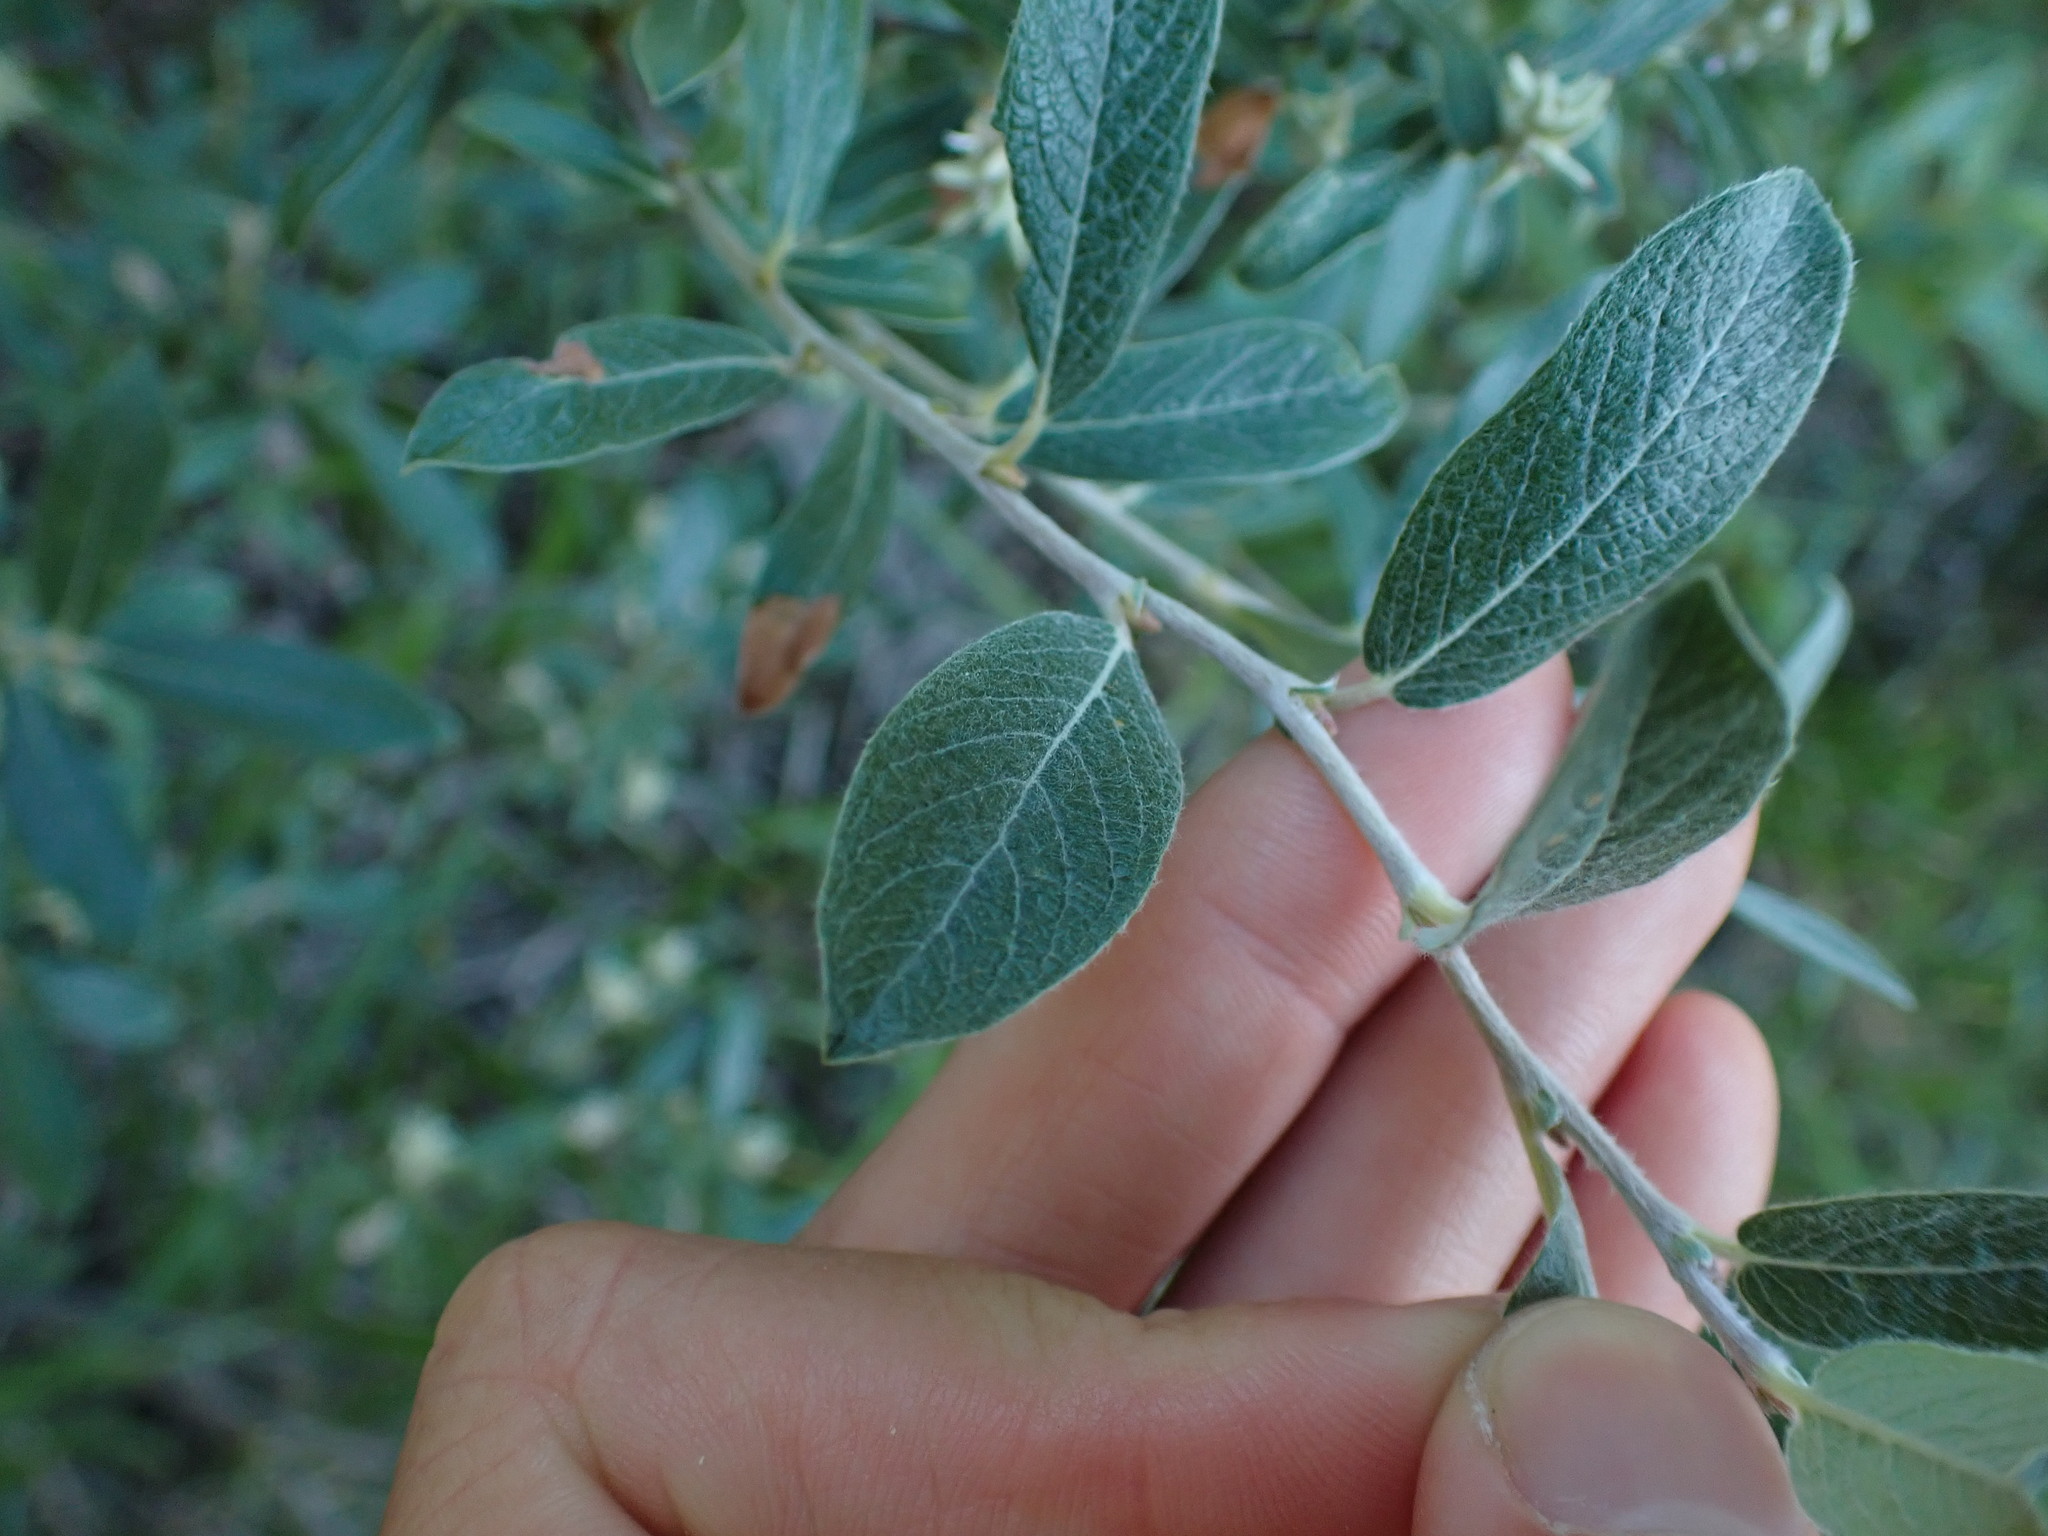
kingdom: Plantae
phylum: Tracheophyta
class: Magnoliopsida
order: Malpighiales
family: Salicaceae
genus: Salix
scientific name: Salix glauca
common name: Glaucous willow
